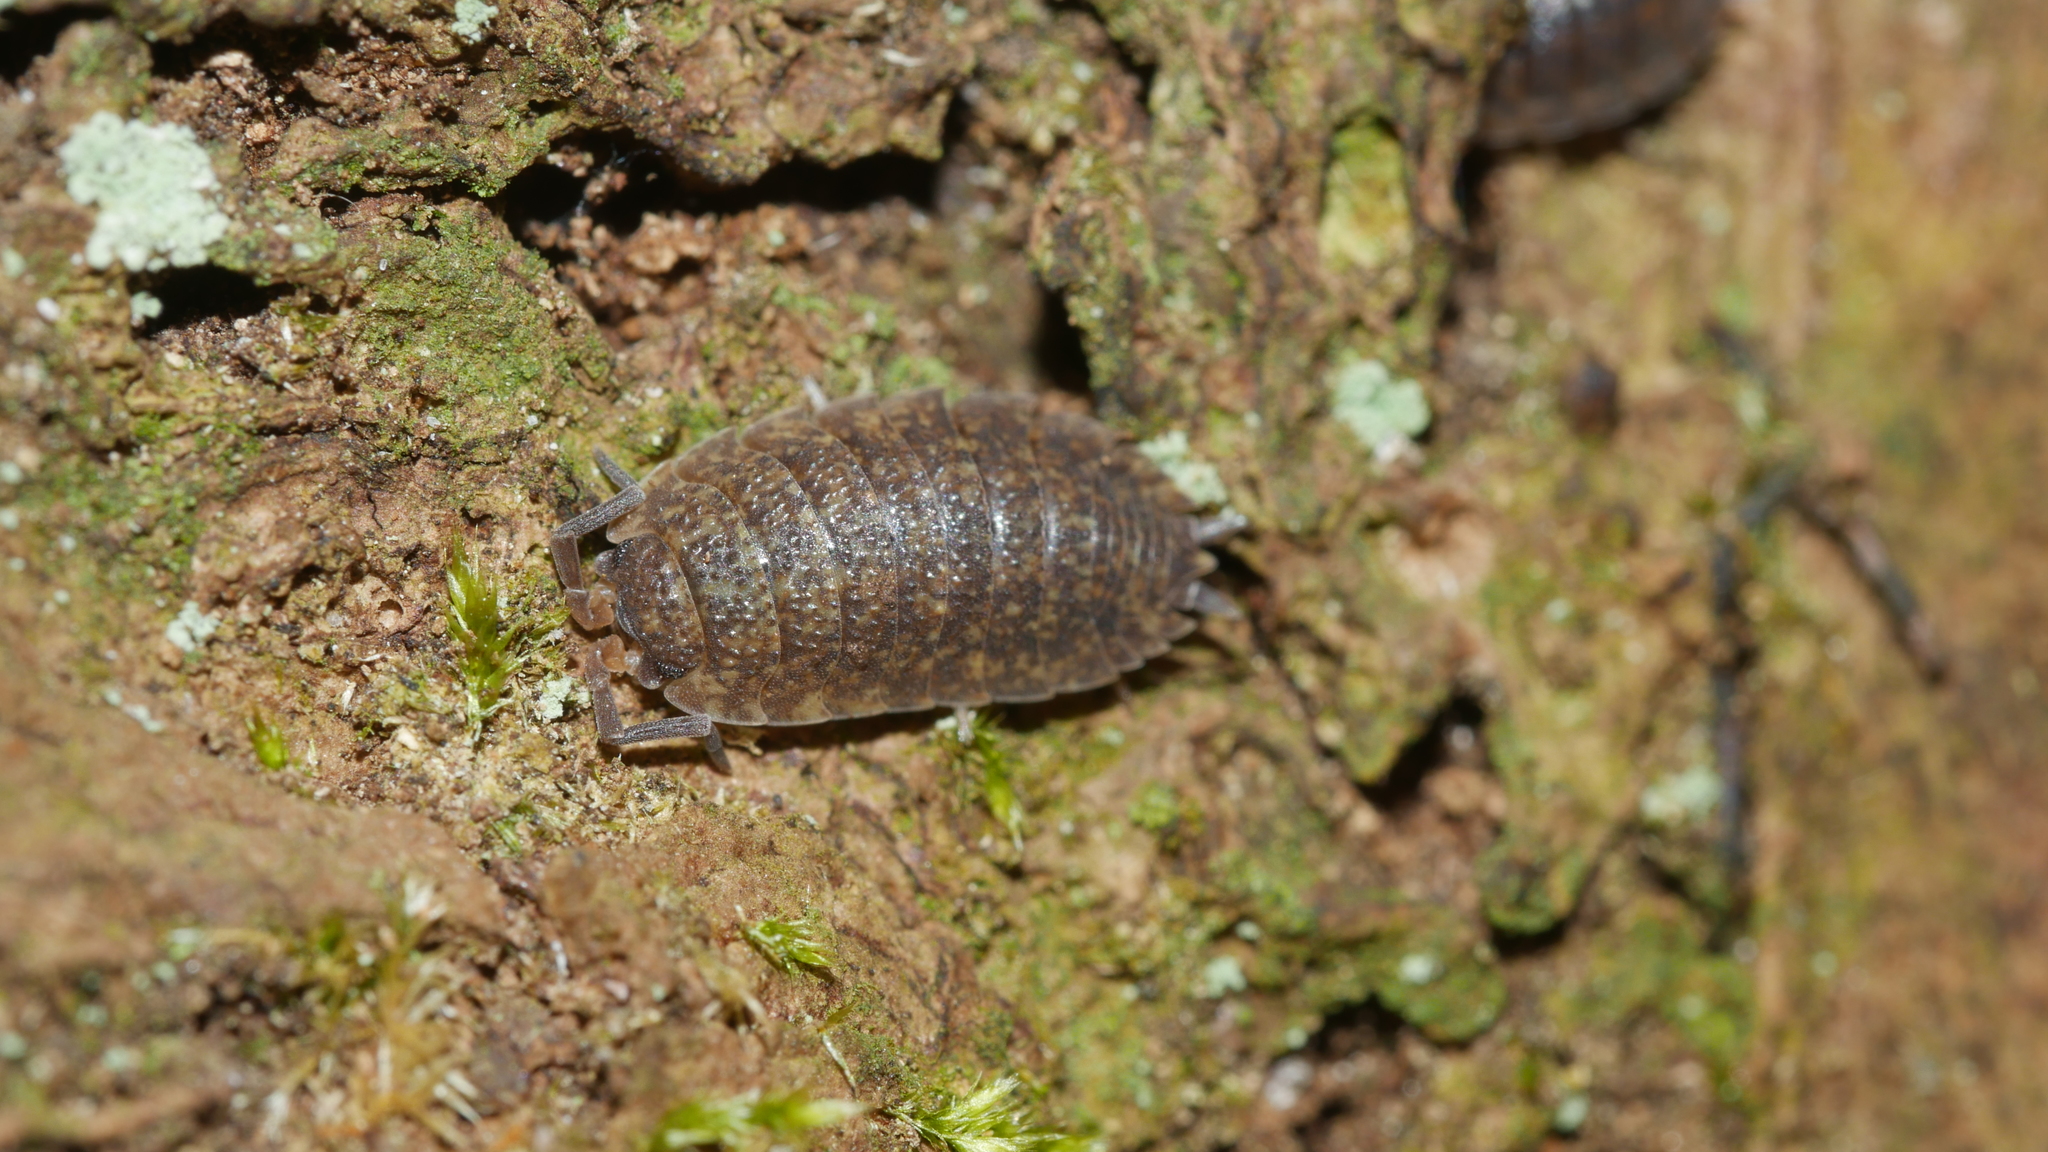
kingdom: Animalia
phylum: Arthropoda
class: Malacostraca
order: Isopoda
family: Porcellionidae
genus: Porcellio
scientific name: Porcellio scaber
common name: Common rough woodlouse
